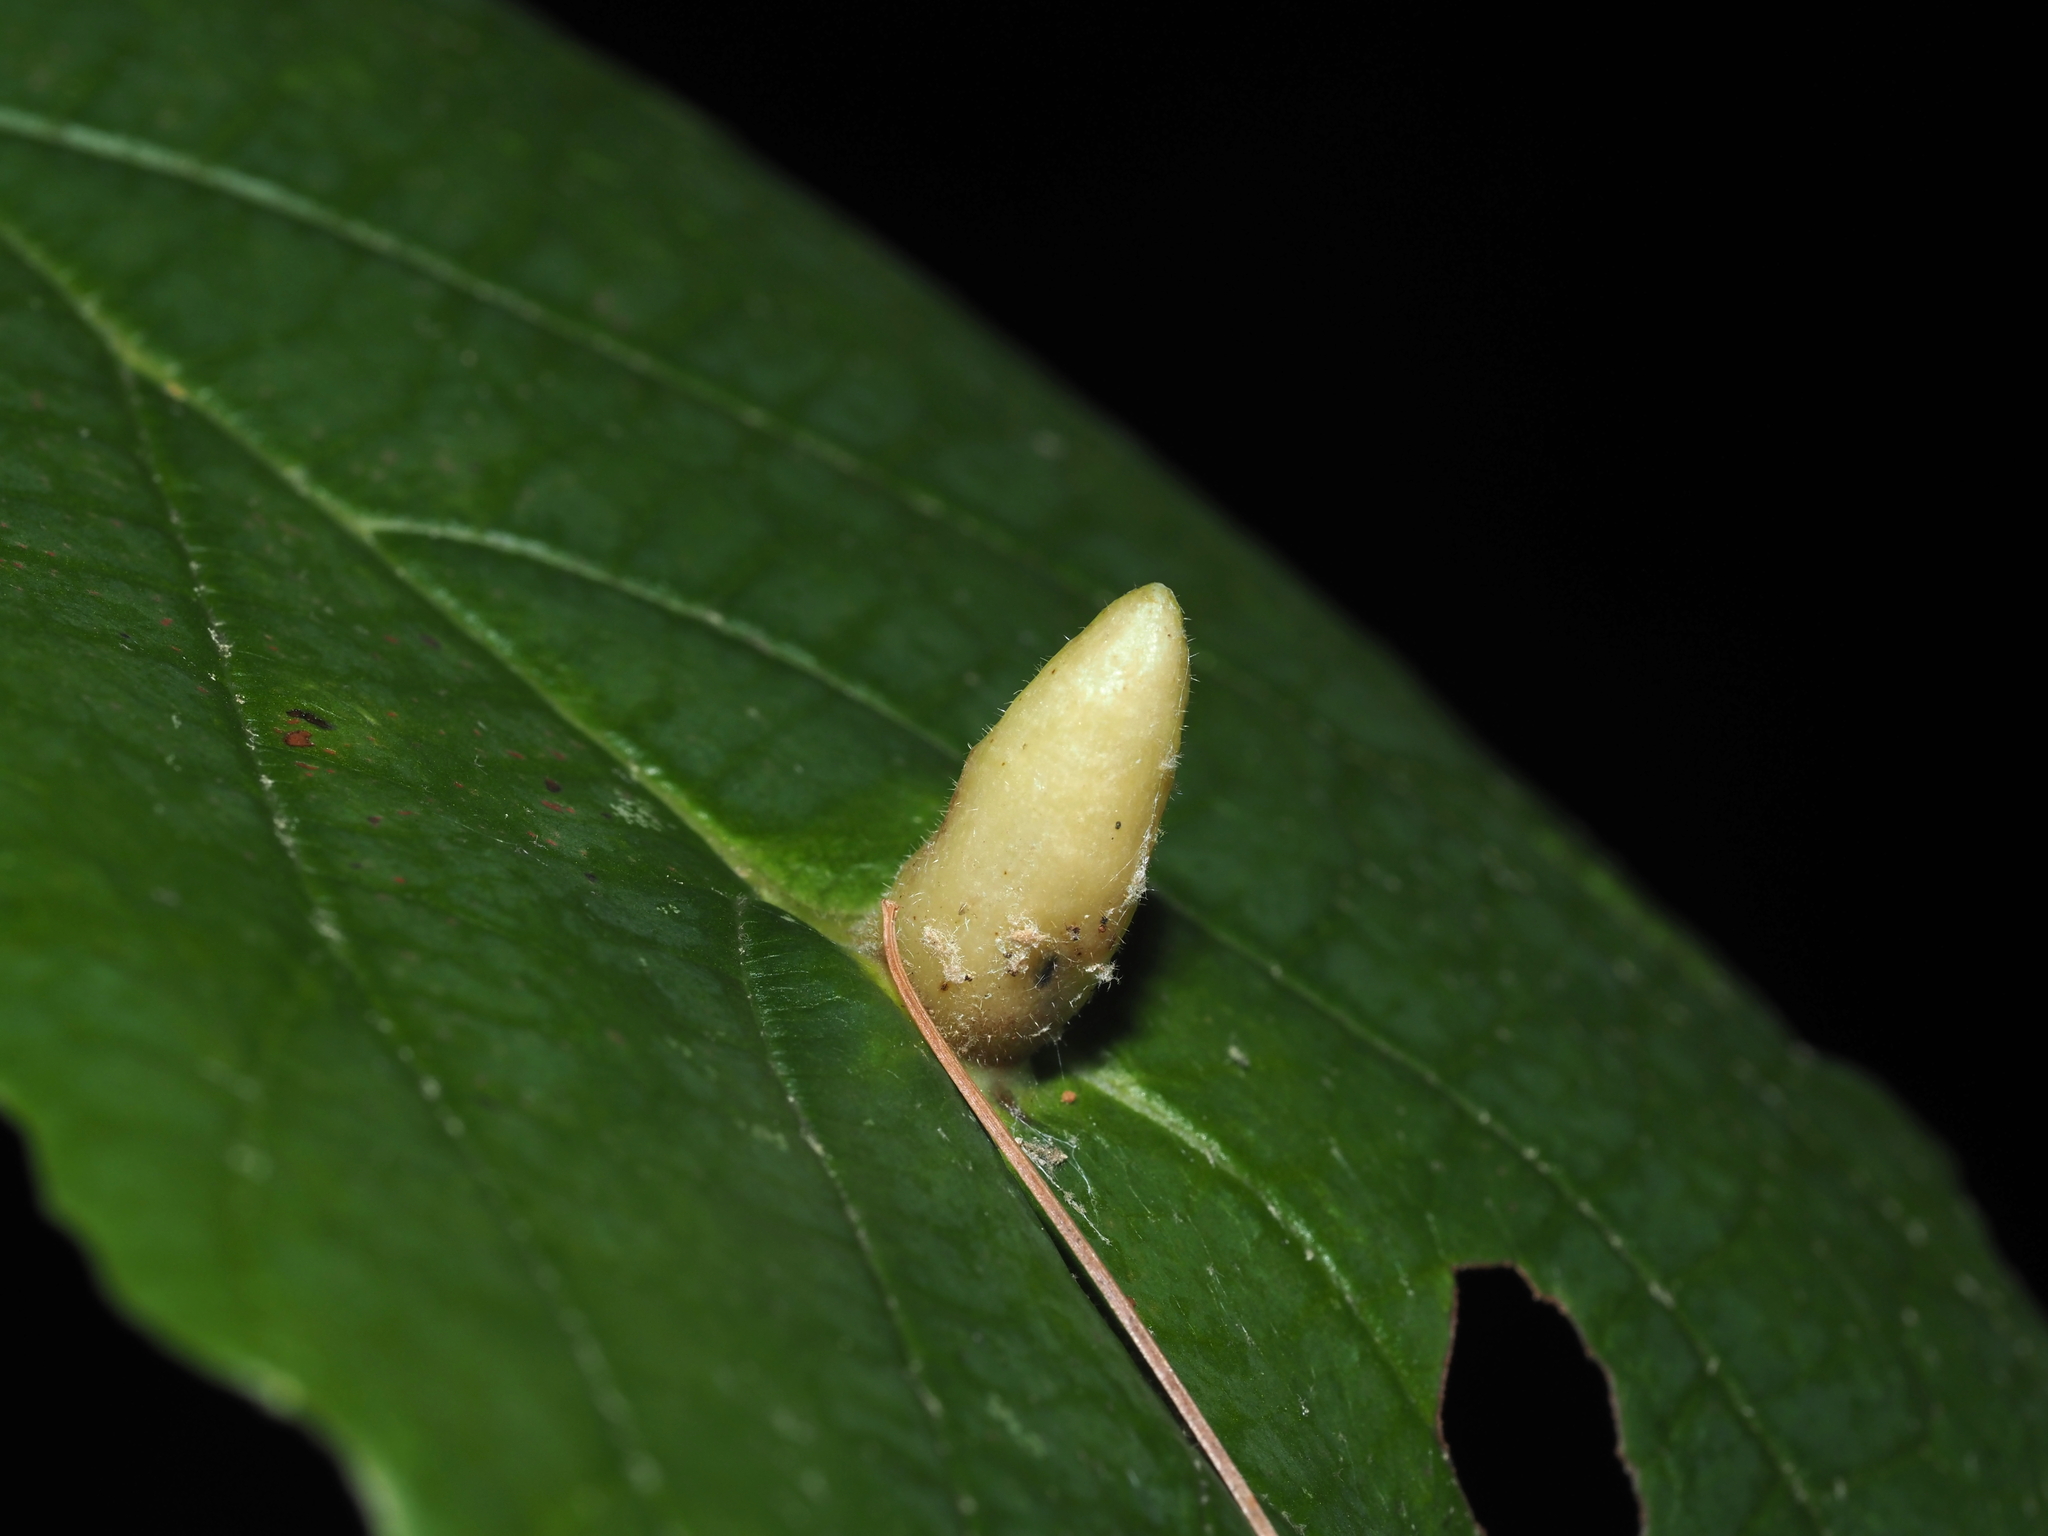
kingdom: Animalia
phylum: Arthropoda
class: Insecta
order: Hemiptera
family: Aphididae
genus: Hormaphis
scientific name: Hormaphis hamamelidis
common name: Witch-hazel cone gall aphid
